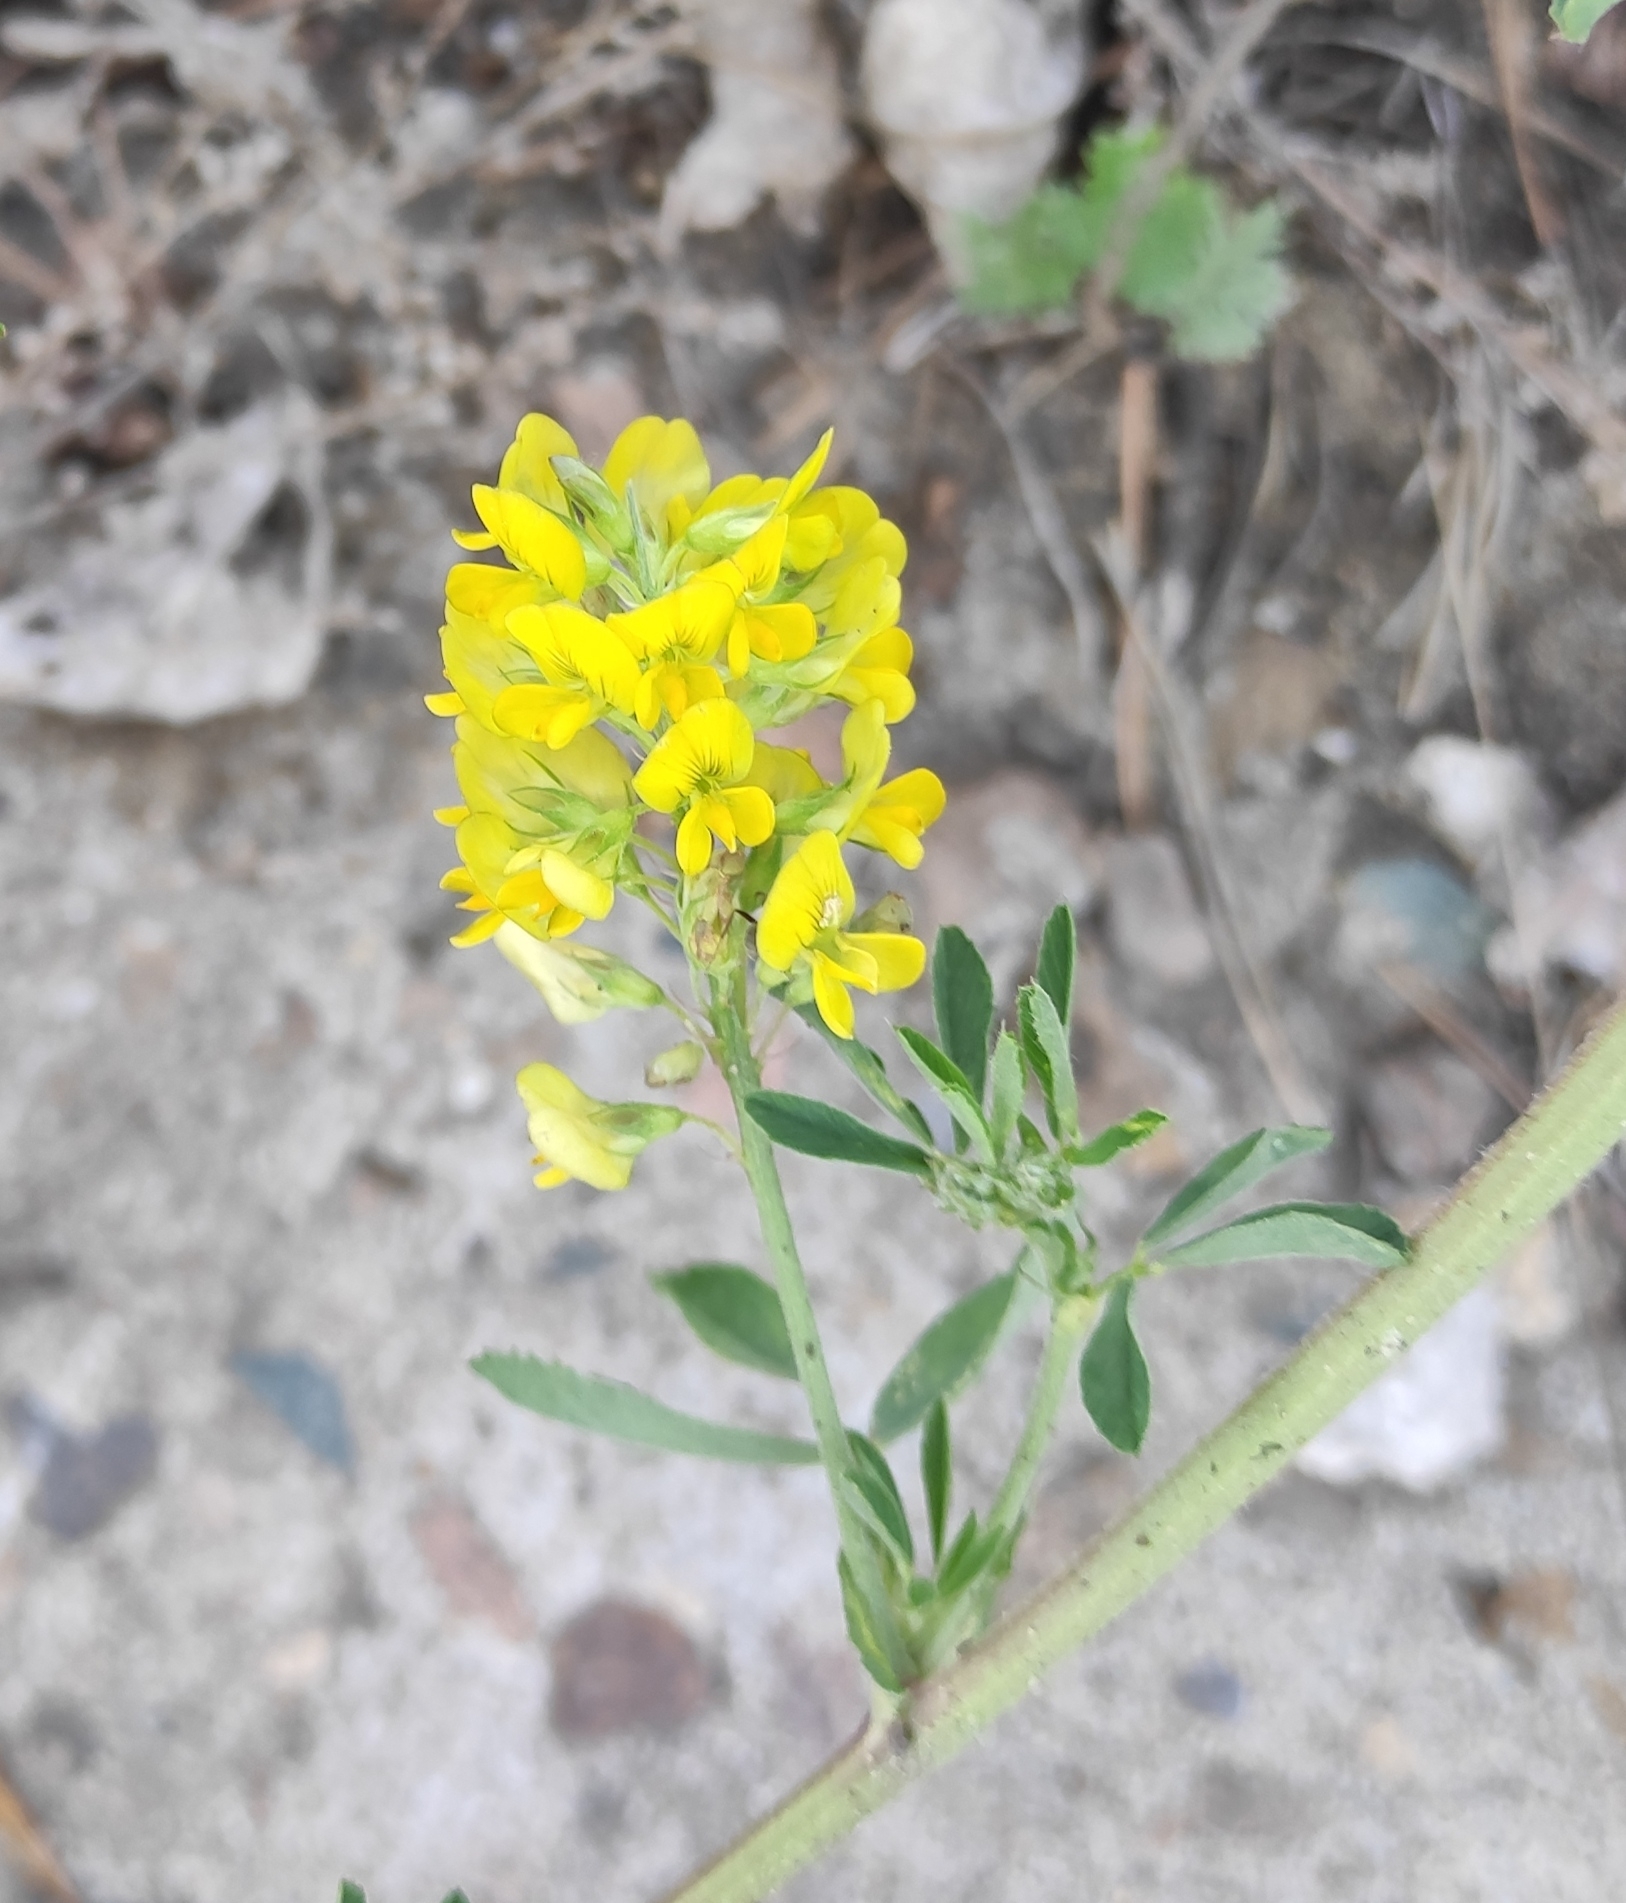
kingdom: Plantae
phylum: Tracheophyta
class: Magnoliopsida
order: Fabales
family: Fabaceae
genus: Medicago
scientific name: Medicago falcata
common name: Sickle medick
